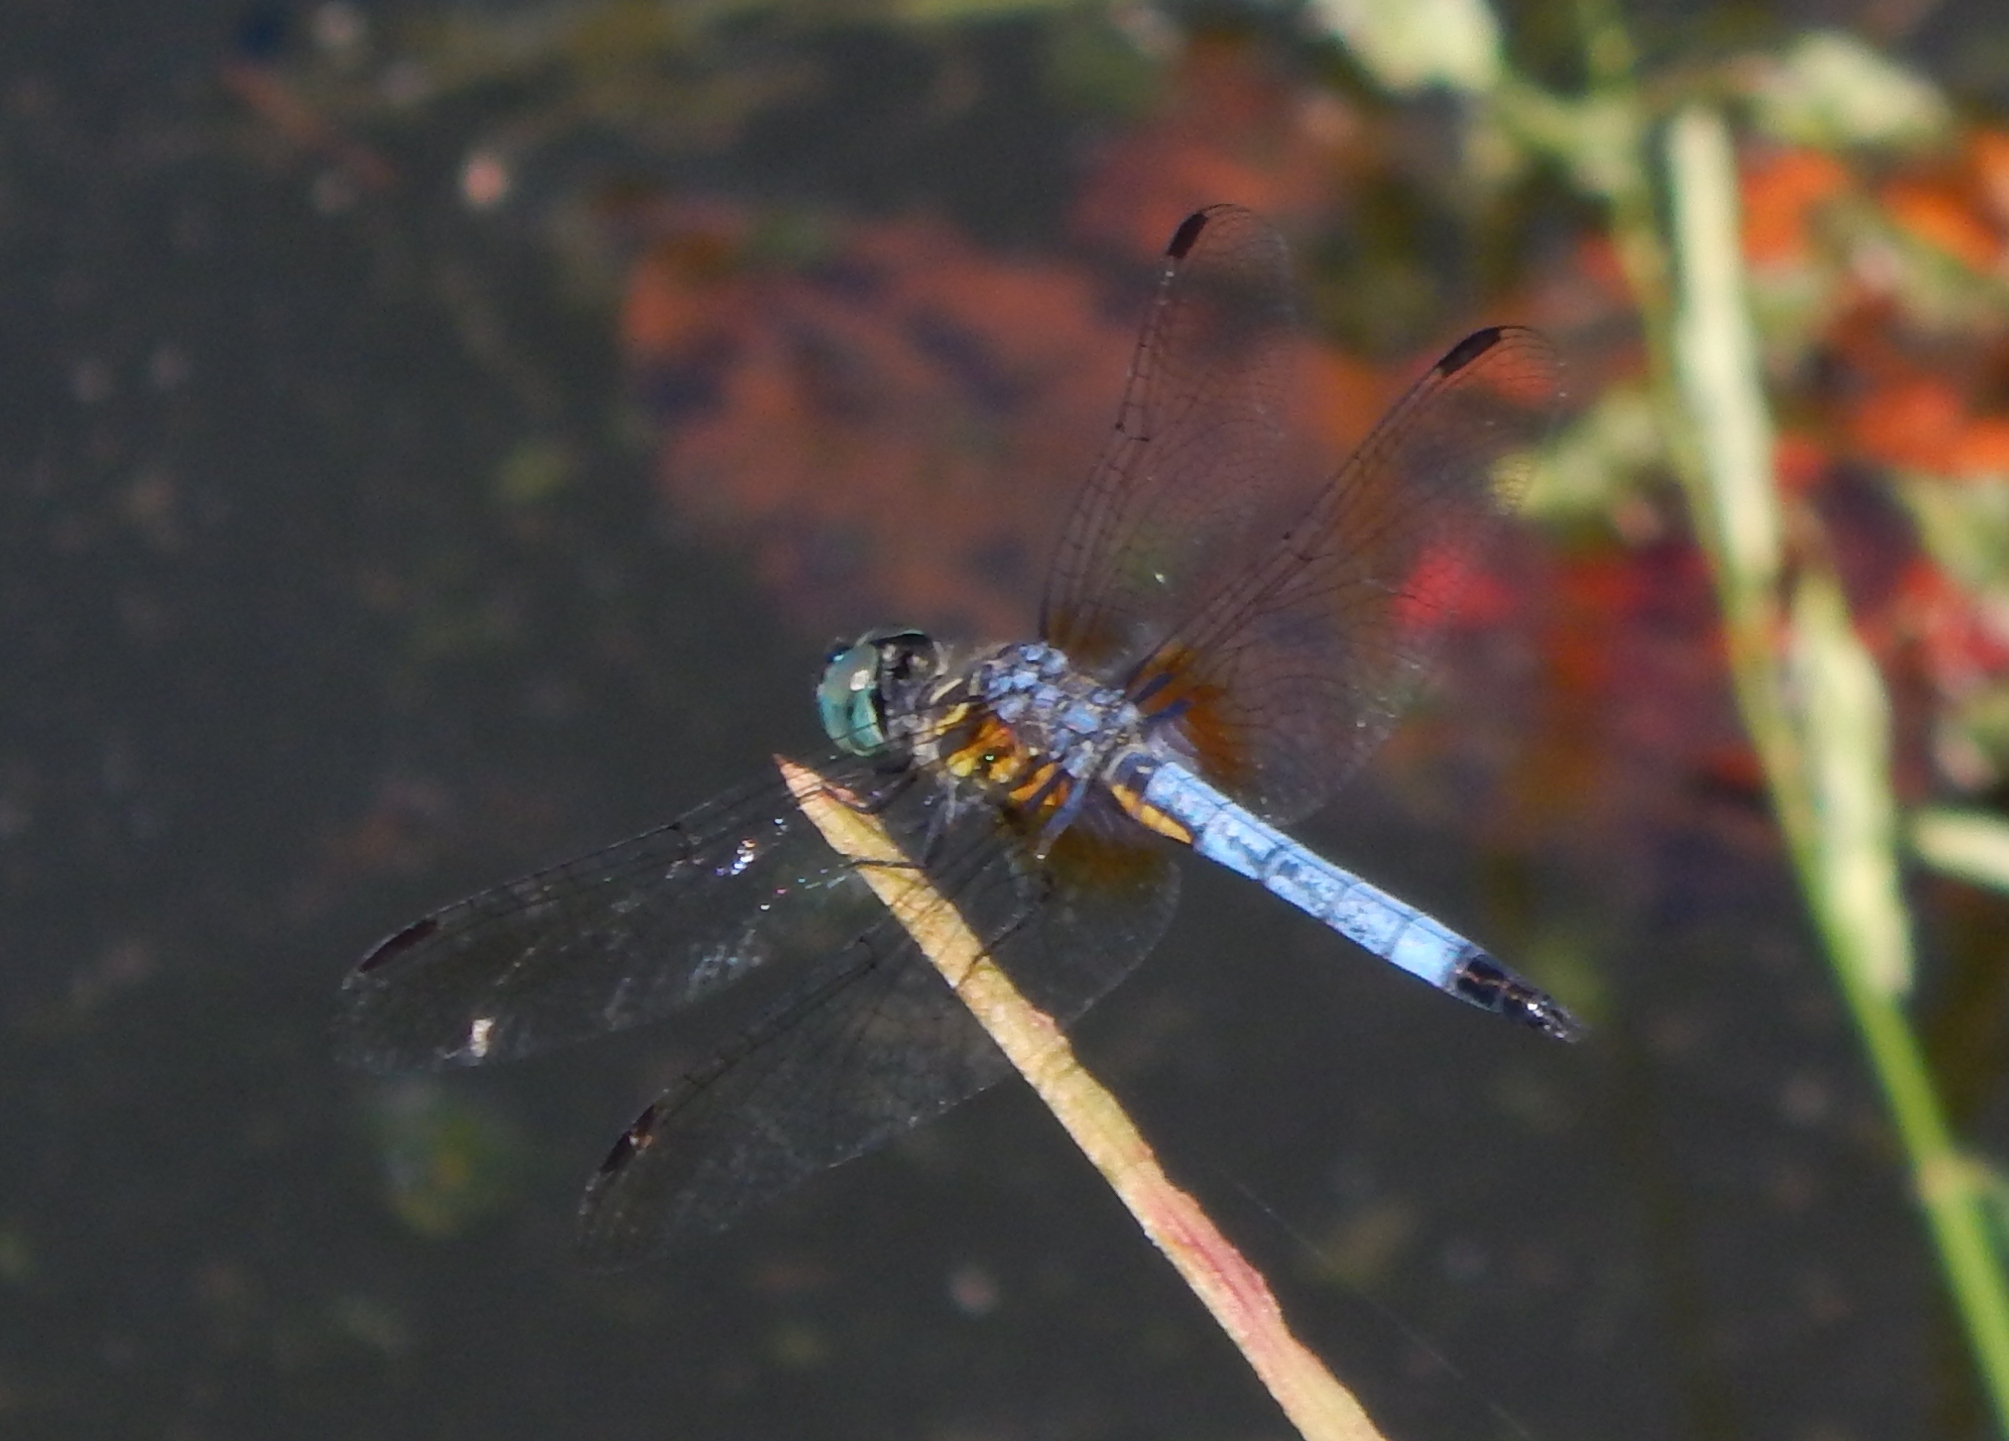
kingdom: Animalia
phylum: Arthropoda
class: Insecta
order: Odonata
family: Libellulidae
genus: Pachydiplax
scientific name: Pachydiplax longipennis
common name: Blue dasher
